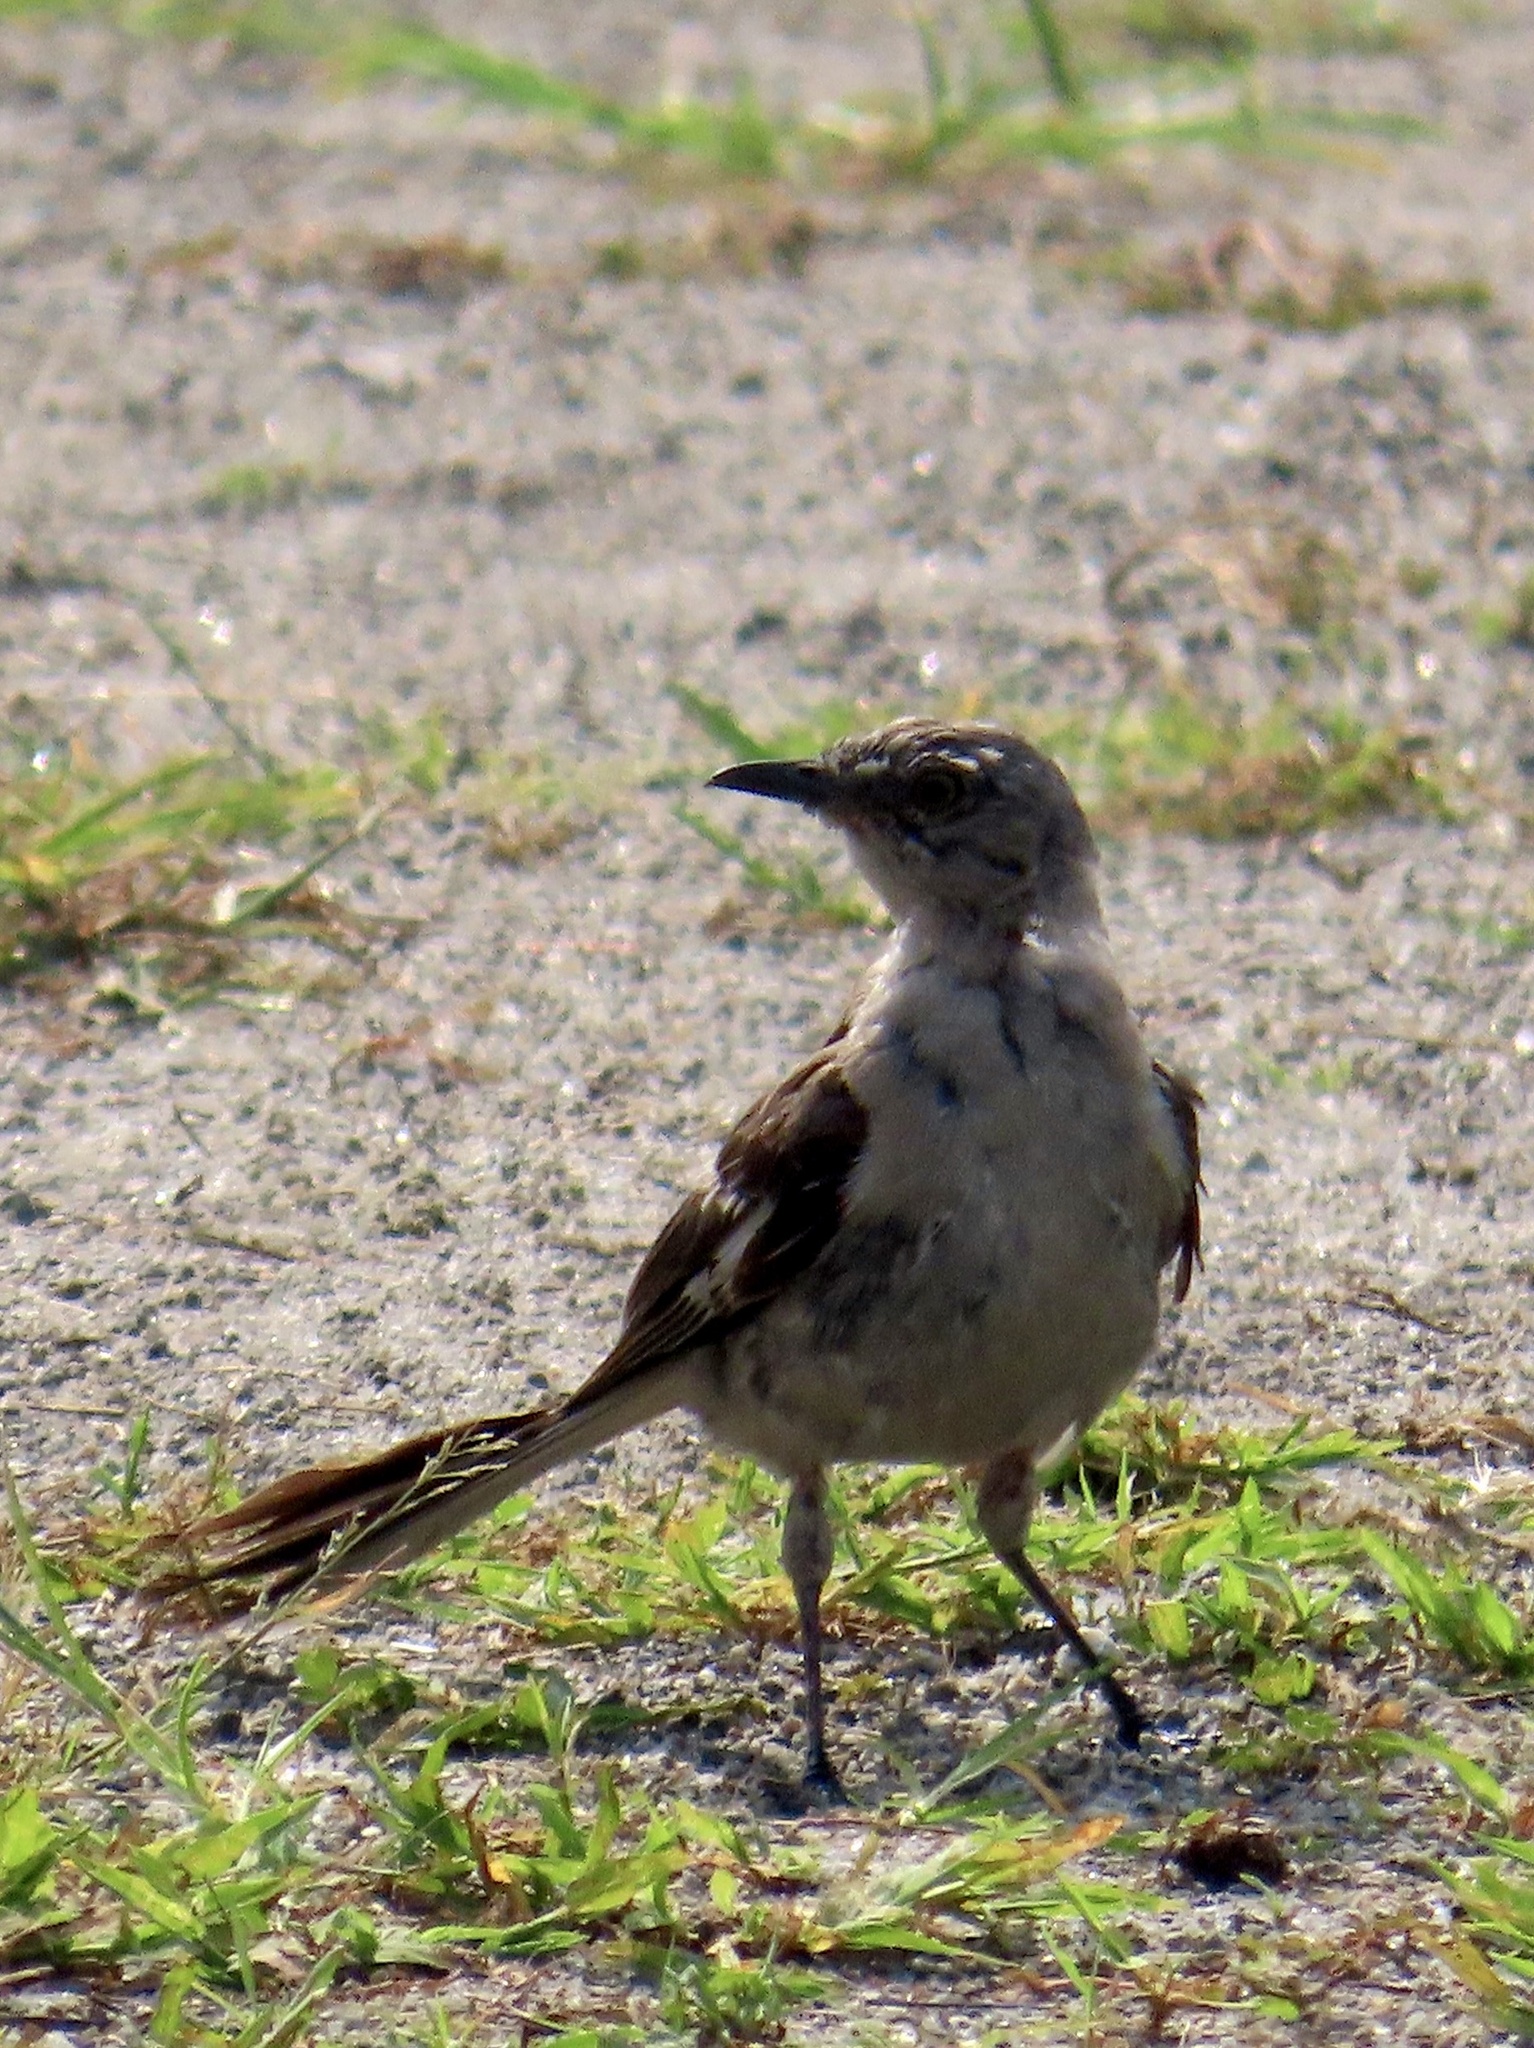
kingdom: Animalia
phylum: Chordata
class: Aves
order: Passeriformes
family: Mimidae
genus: Mimus
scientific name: Mimus polyglottos
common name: Northern mockingbird
